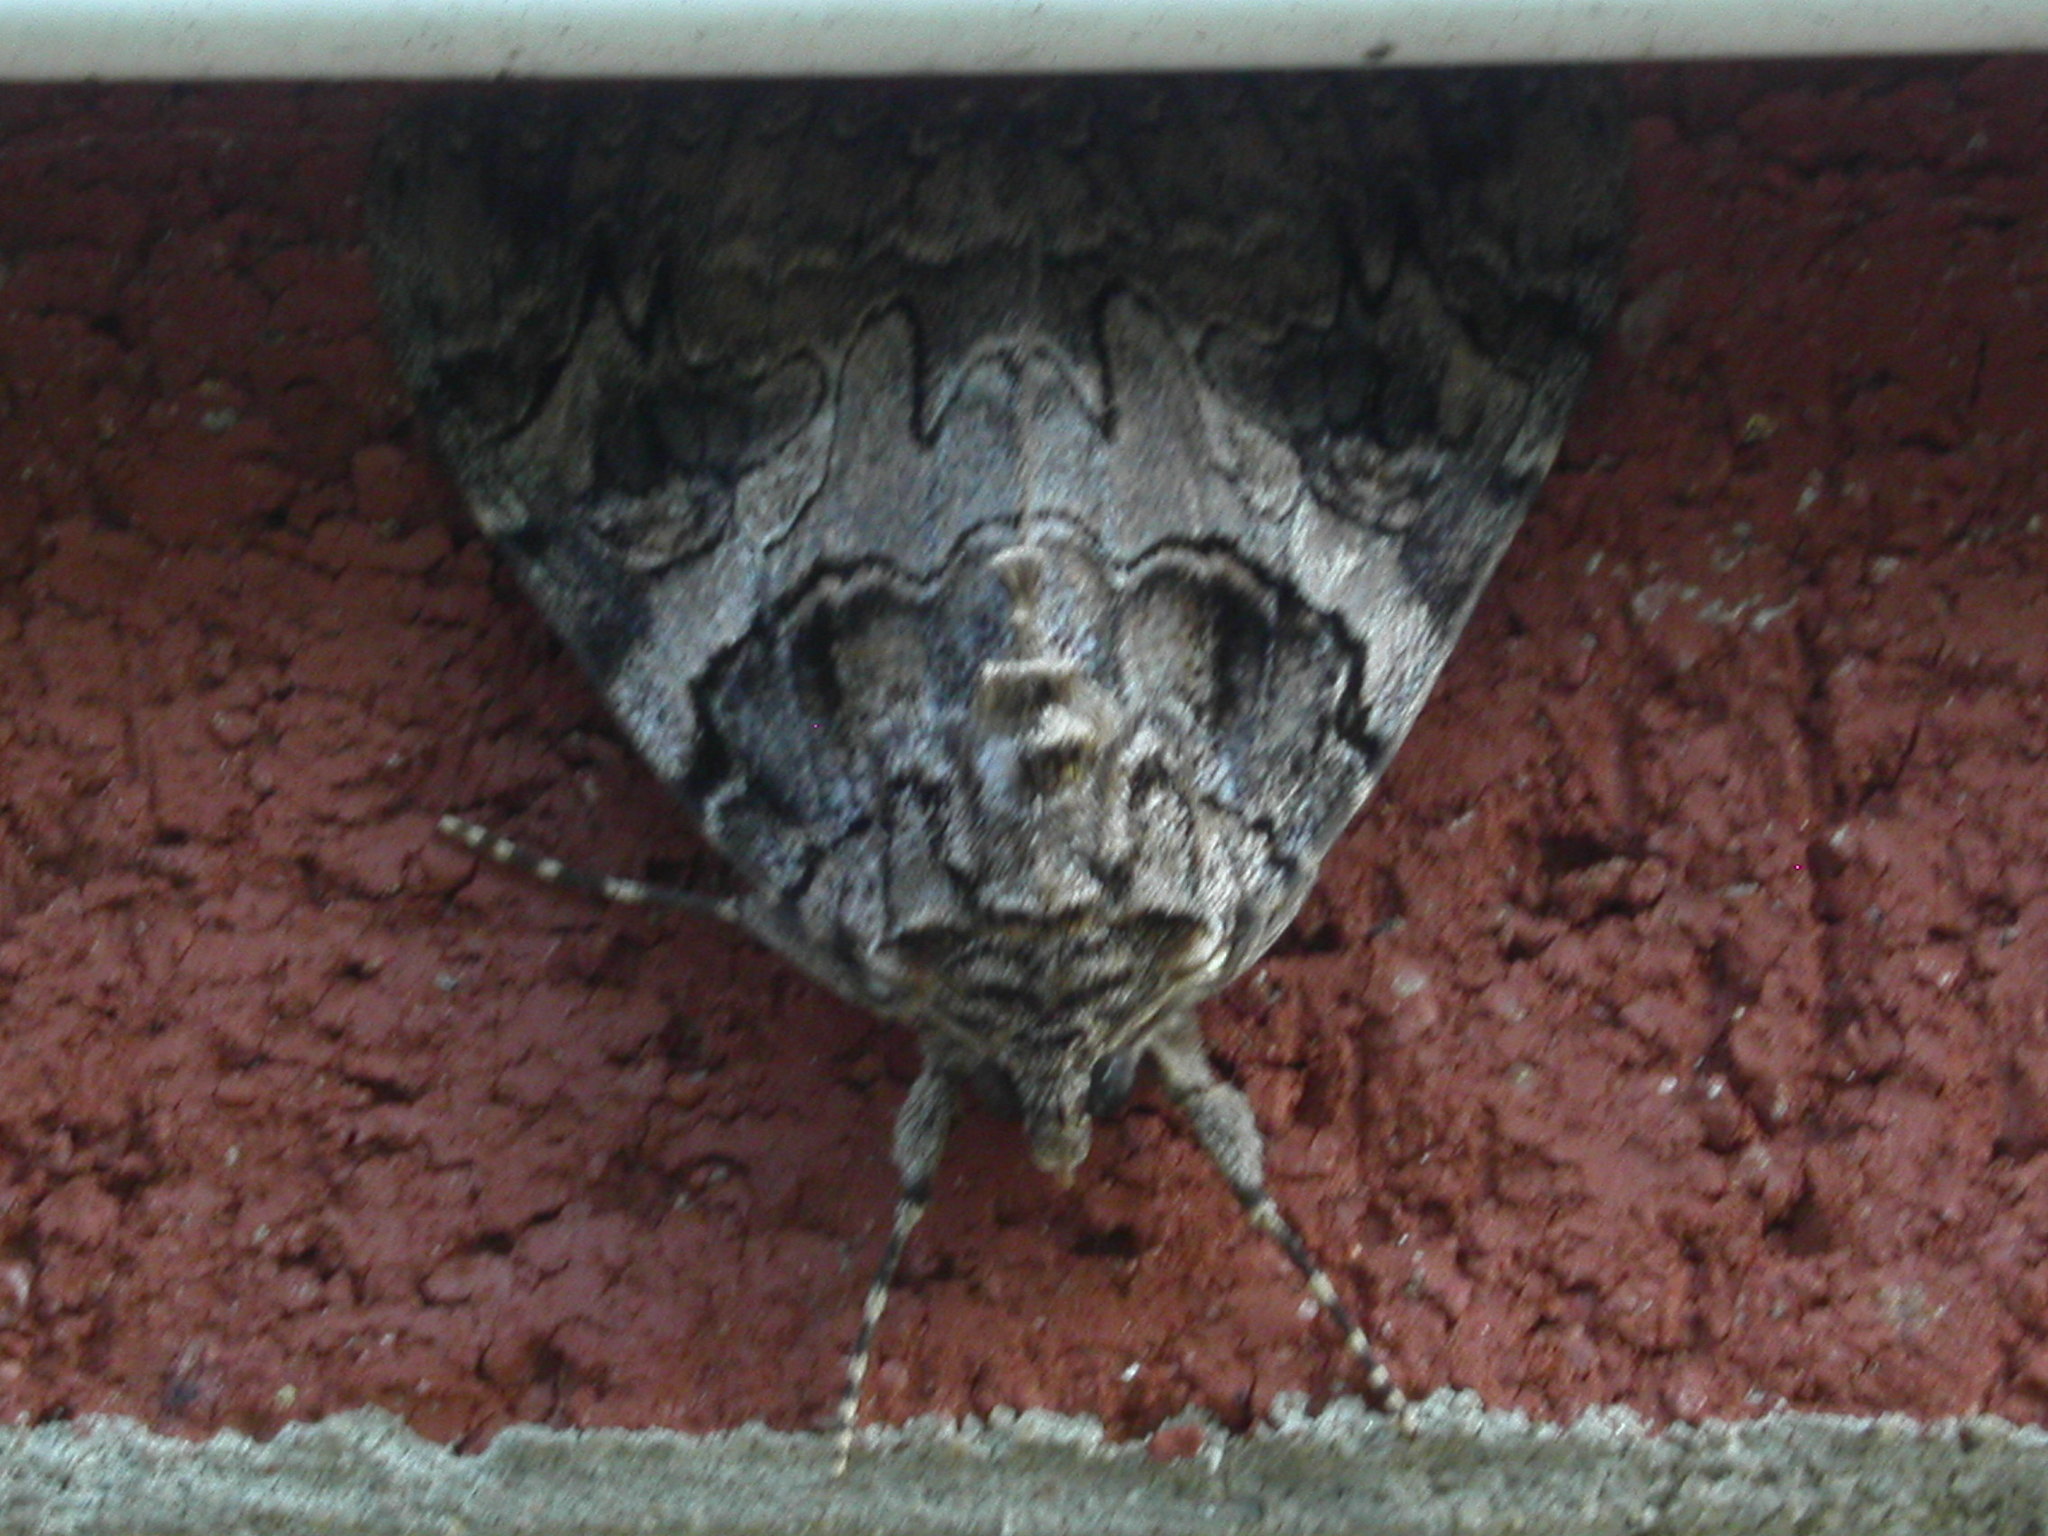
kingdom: Animalia
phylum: Arthropoda
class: Insecta
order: Lepidoptera
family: Erebidae
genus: Catocala
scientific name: Catocala piatrix
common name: The penitent underwing
